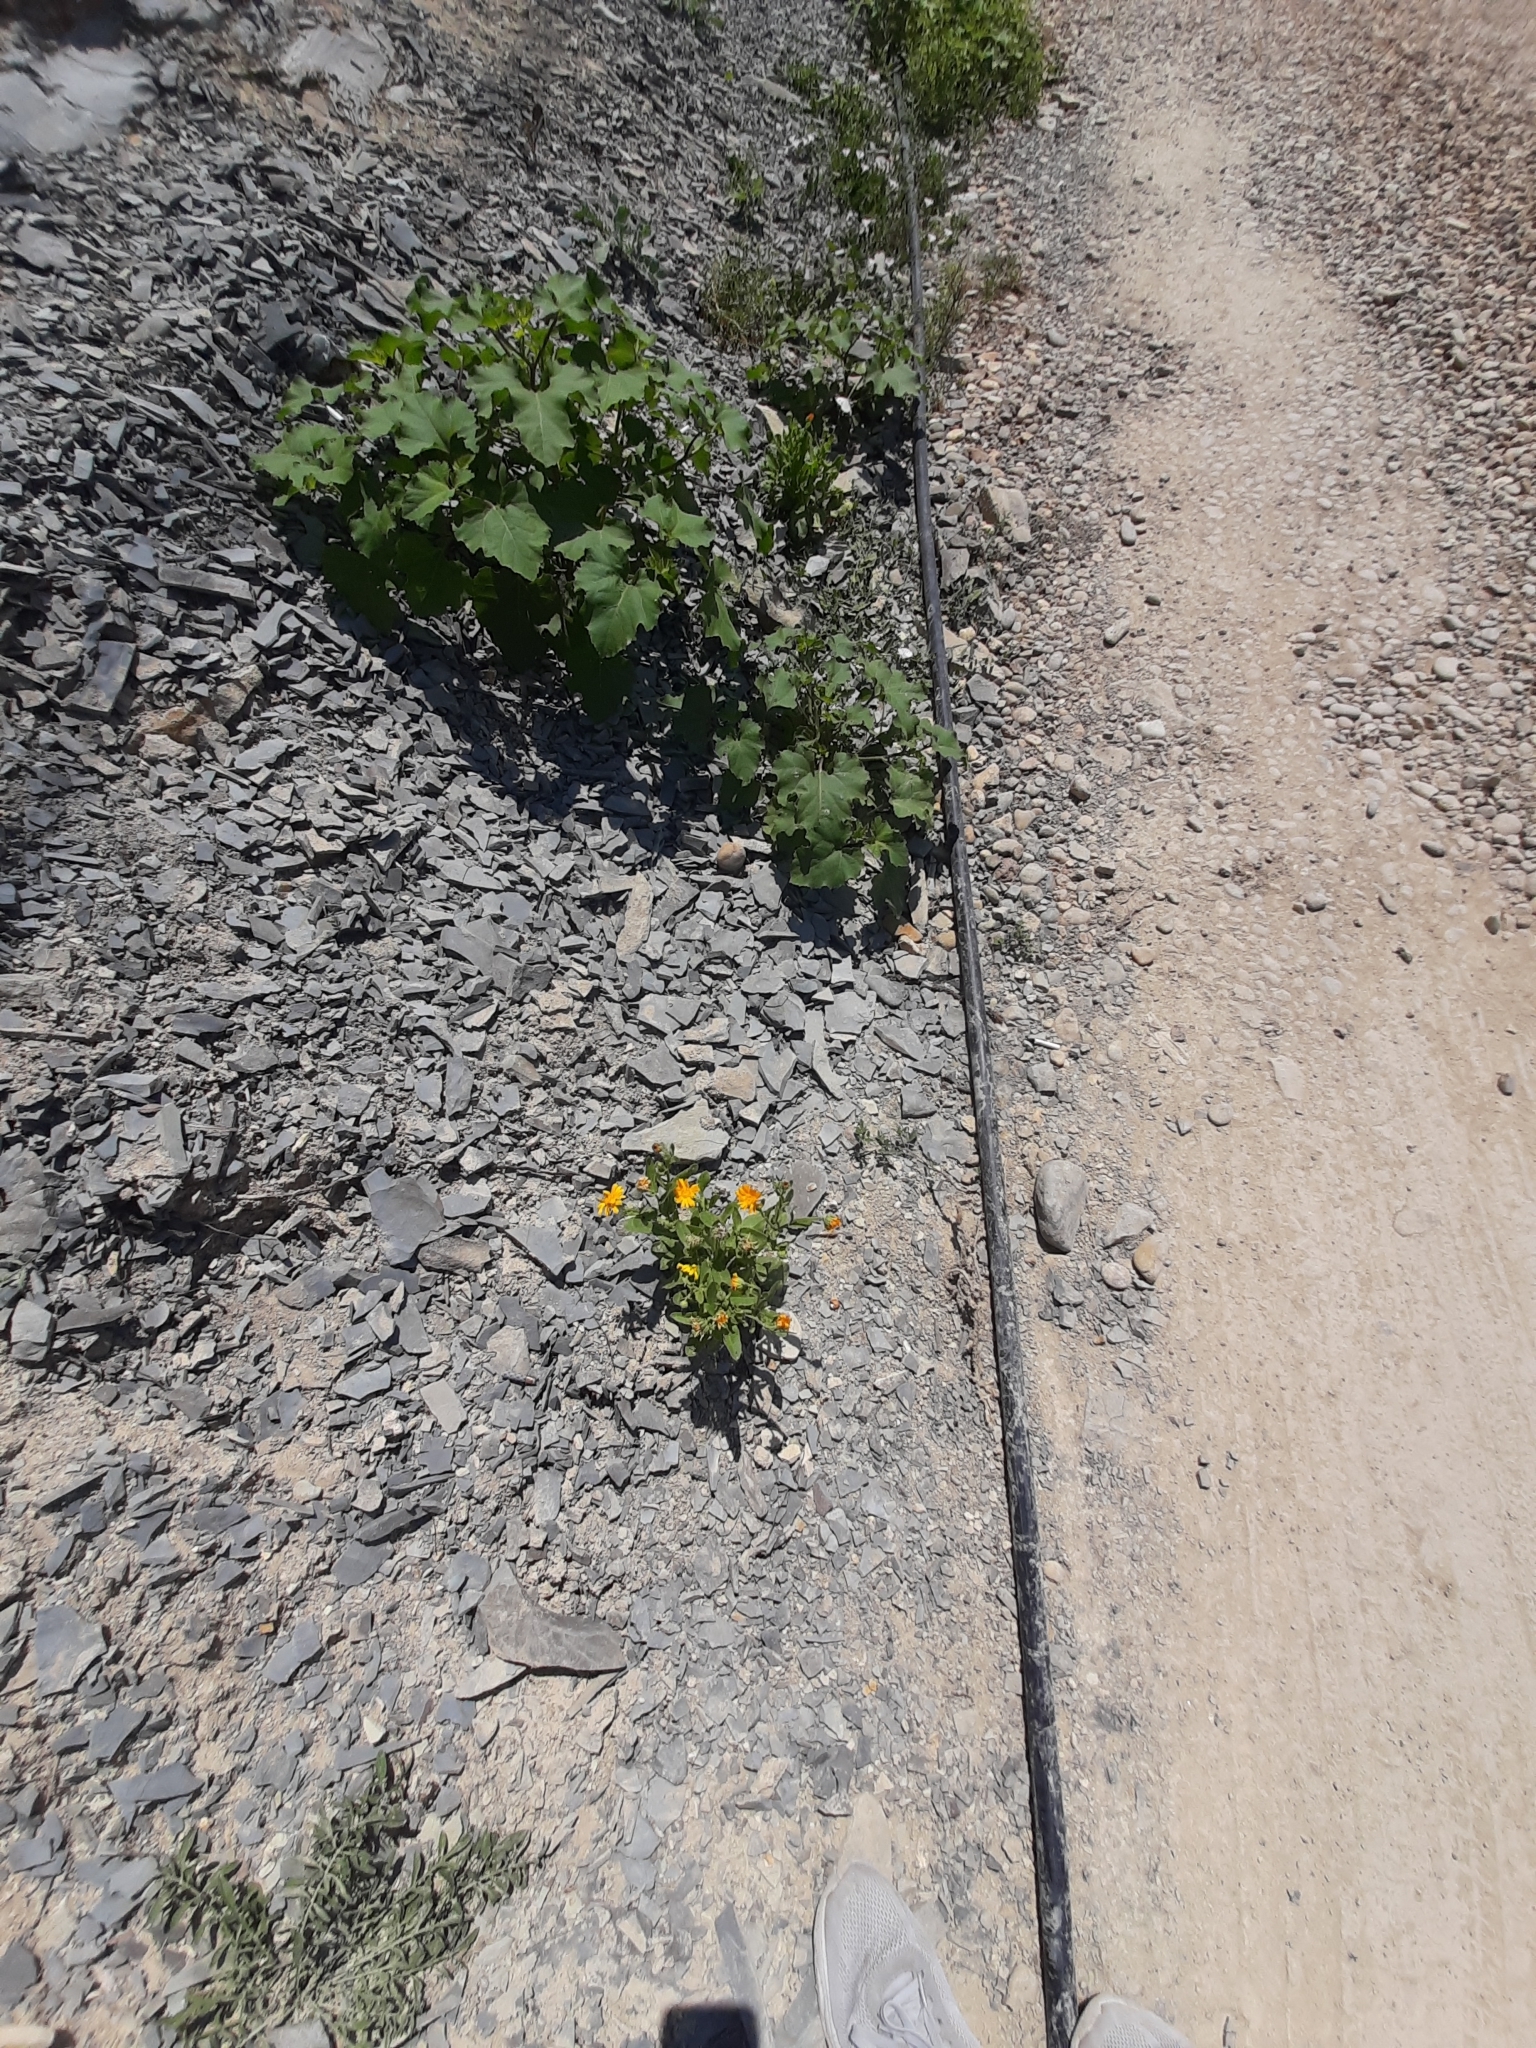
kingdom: Plantae
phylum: Tracheophyta
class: Magnoliopsida
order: Asterales
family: Asteraceae
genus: Calendula
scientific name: Calendula officinalis
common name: Pot marigold
